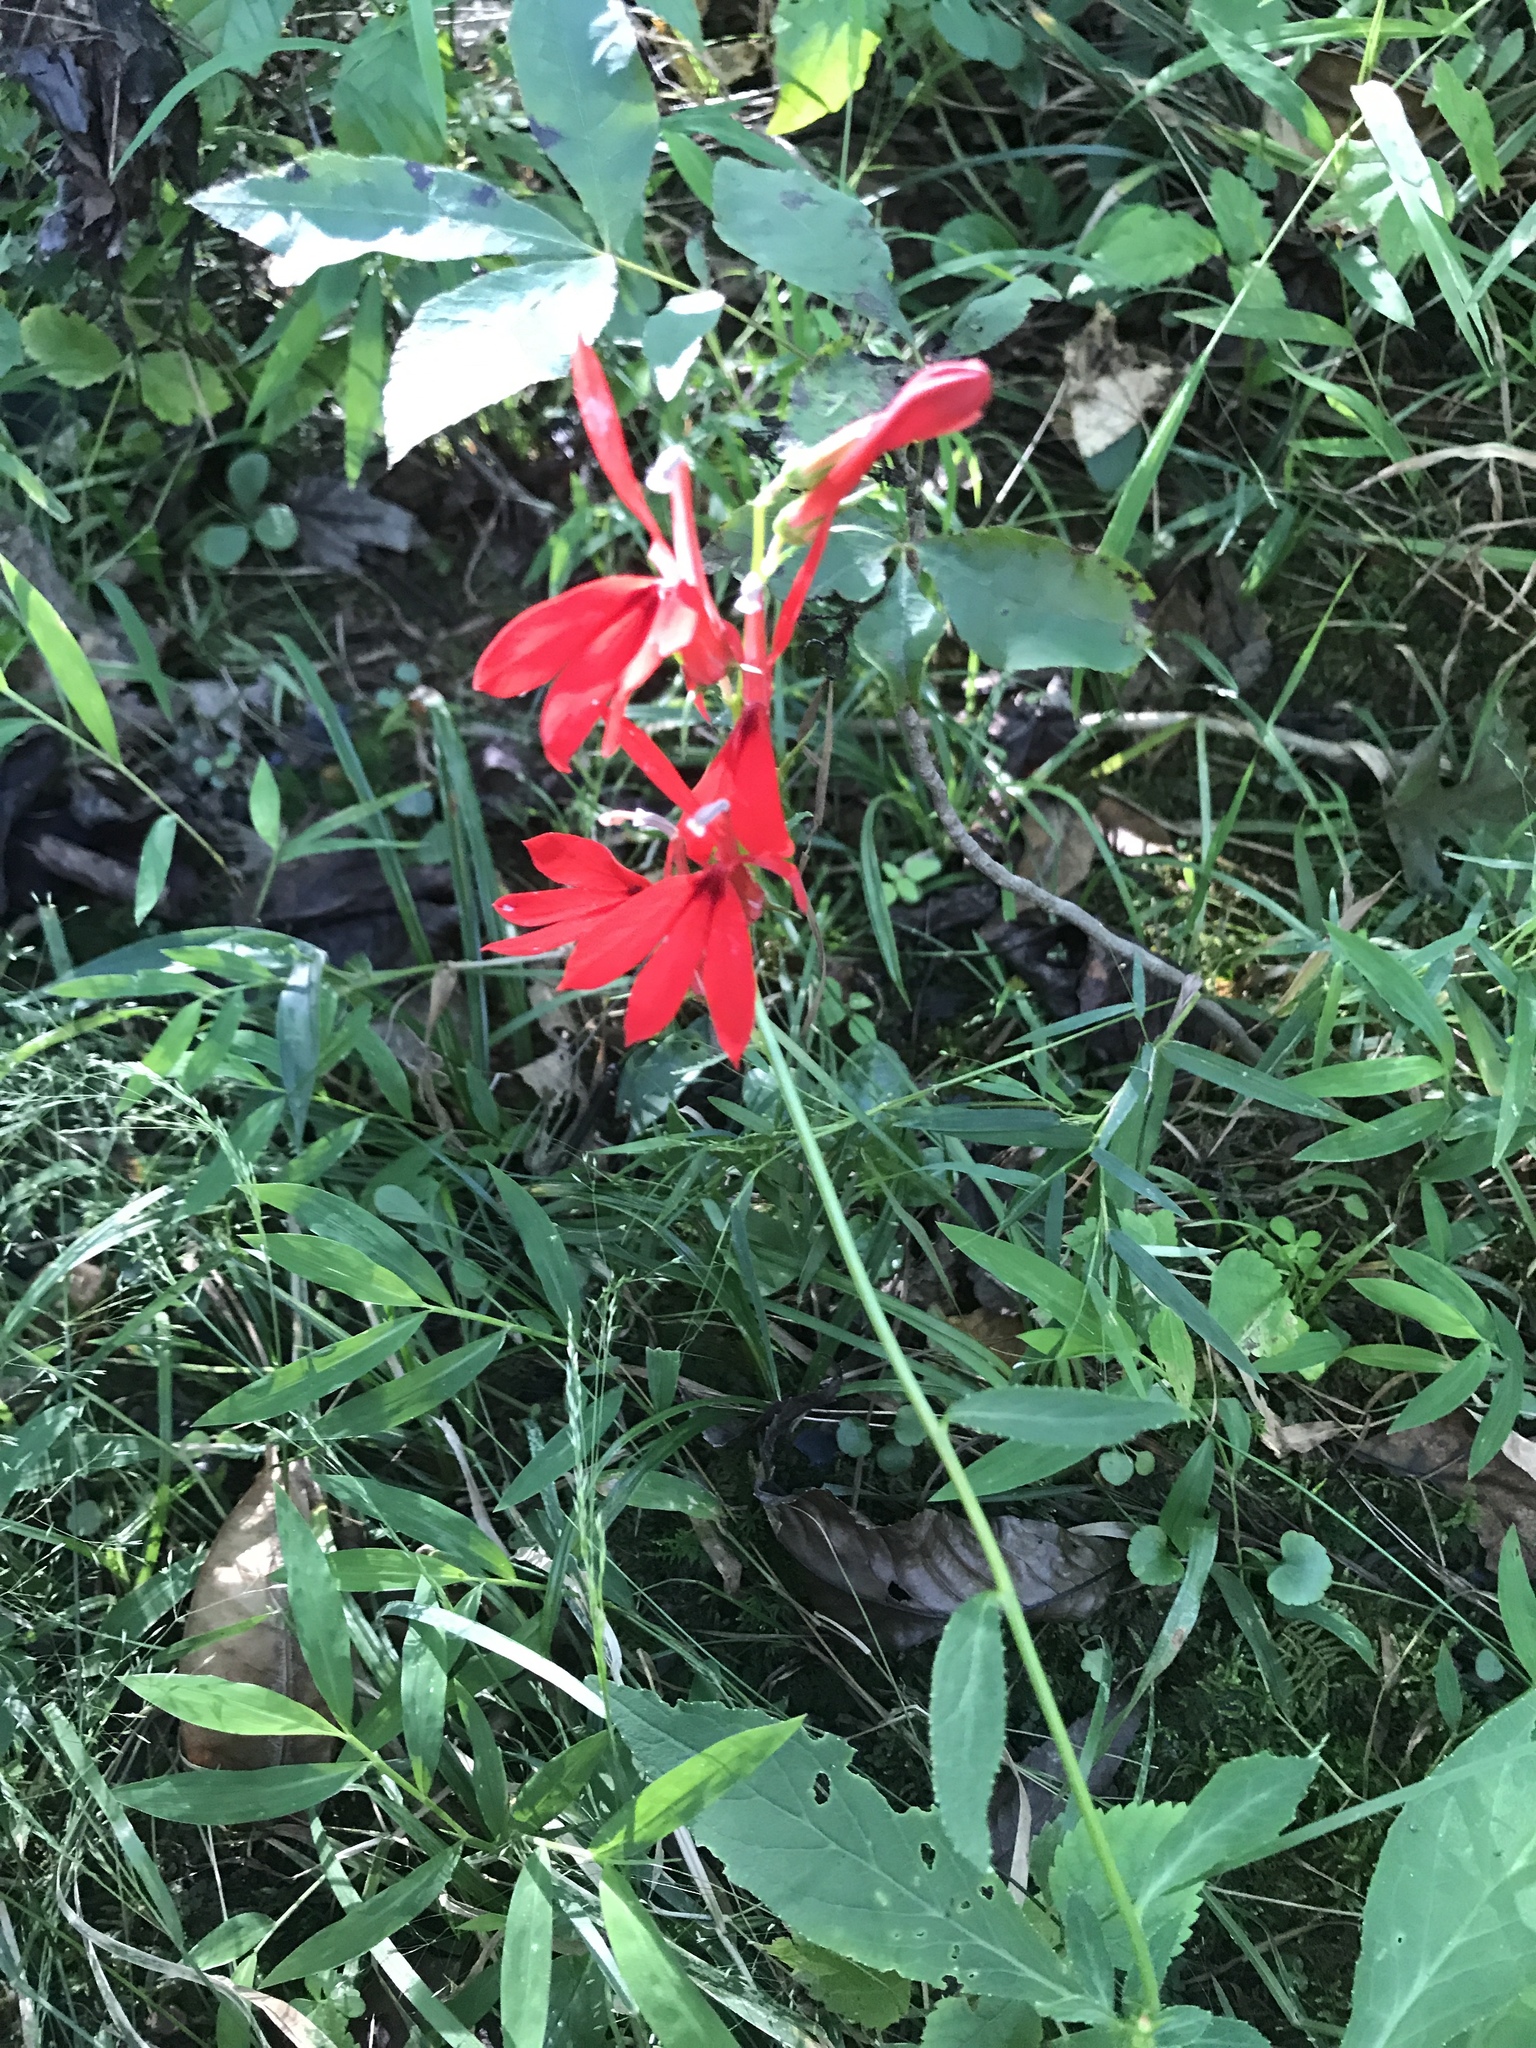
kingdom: Plantae
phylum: Tracheophyta
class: Magnoliopsida
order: Asterales
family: Campanulaceae
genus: Lobelia
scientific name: Lobelia cardinalis
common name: Cardinal flower
